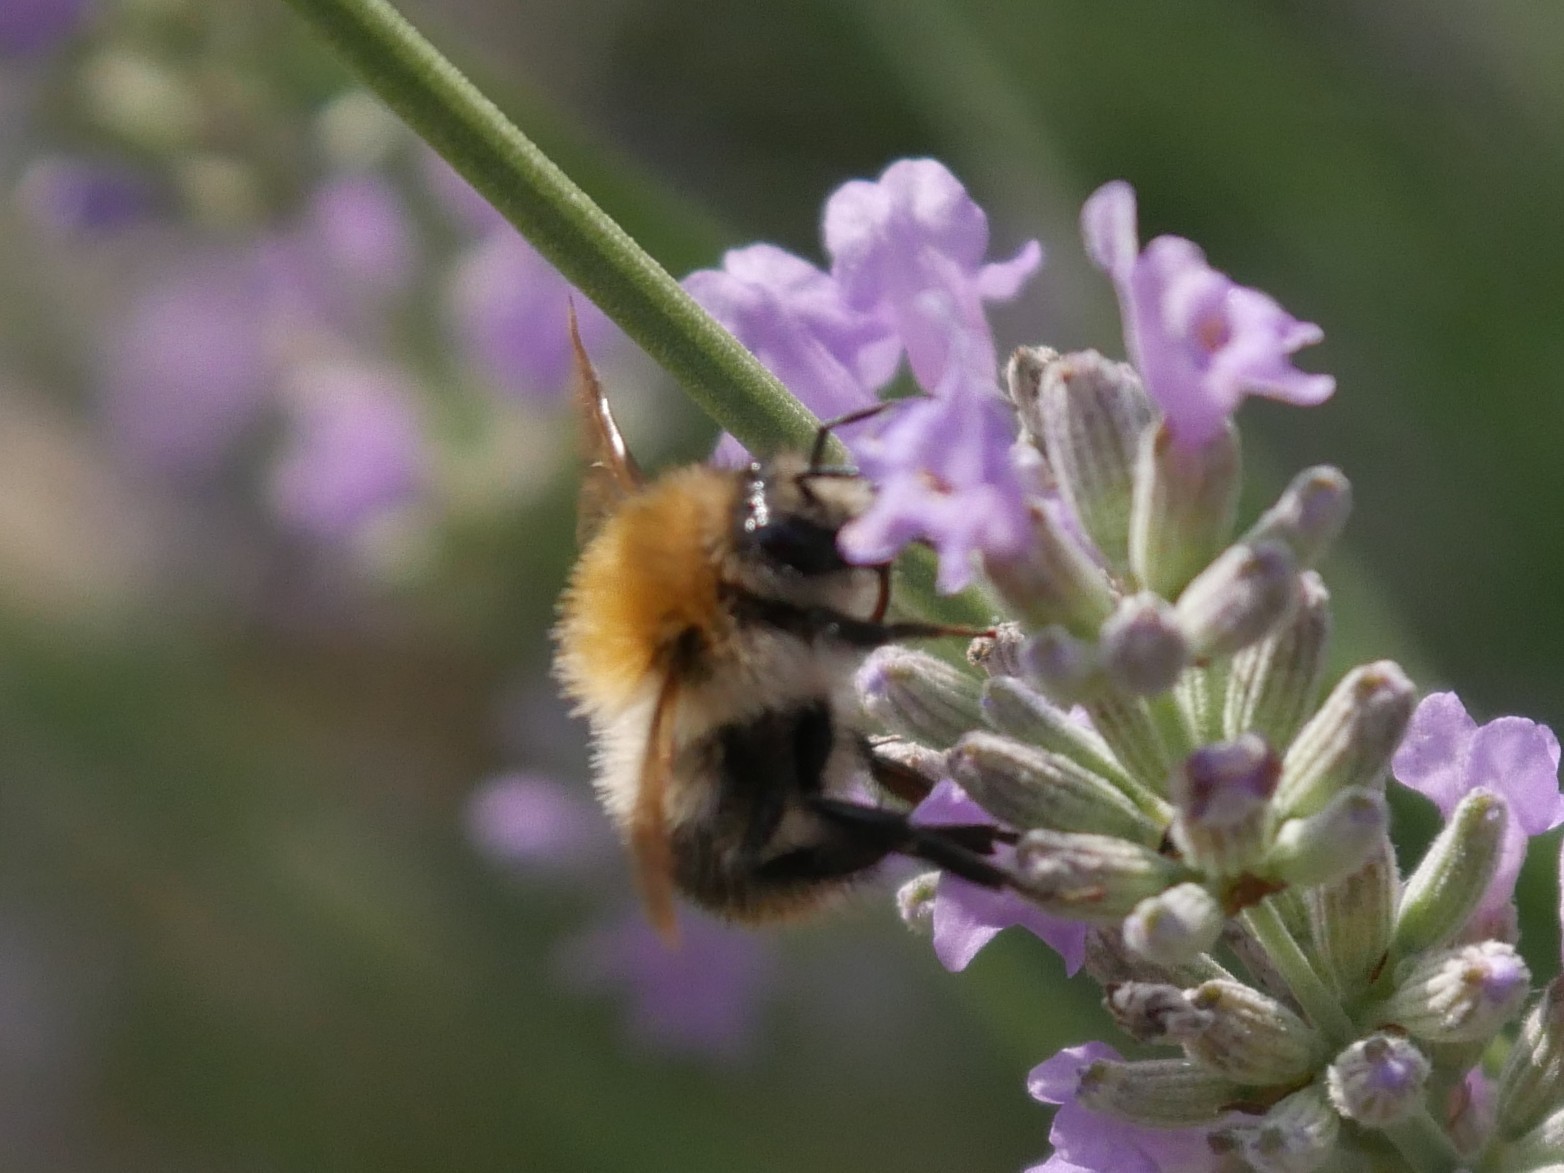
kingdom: Animalia
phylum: Arthropoda
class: Insecta
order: Hymenoptera
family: Apidae
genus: Bombus
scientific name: Bombus pascuorum
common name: Common carder bee
